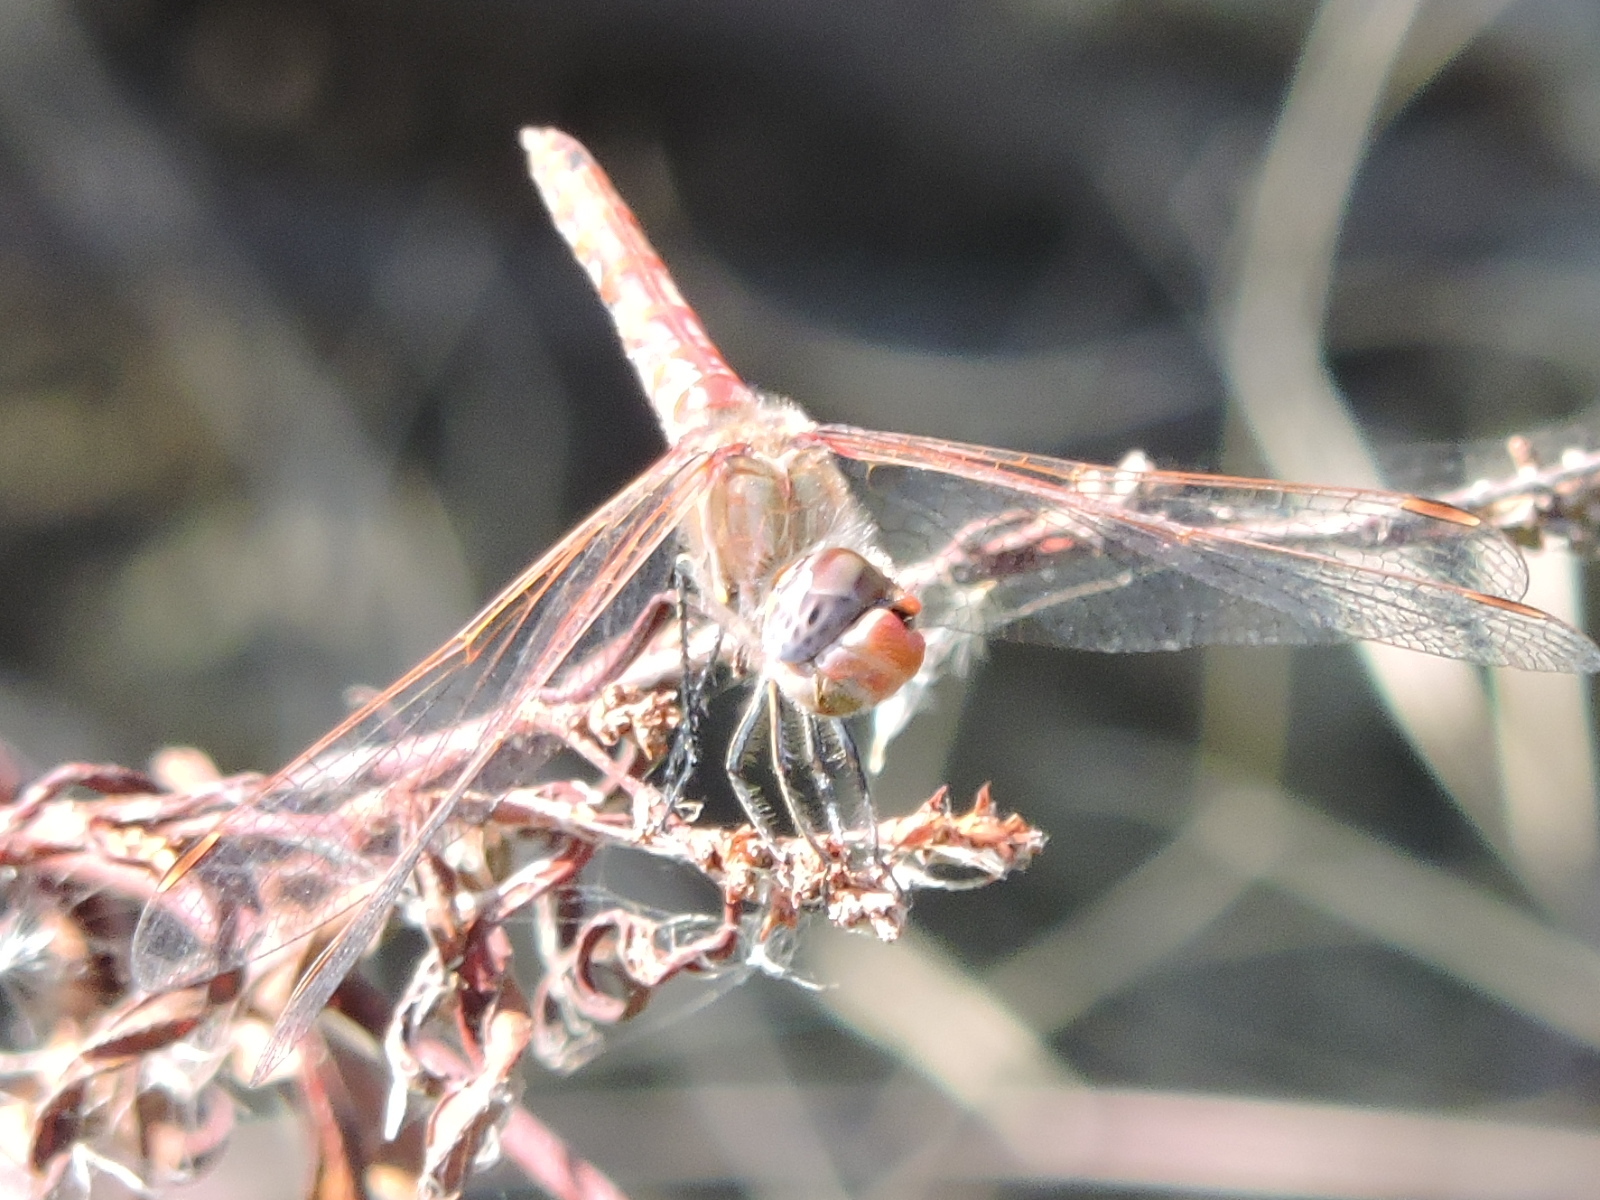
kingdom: Animalia
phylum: Arthropoda
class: Insecta
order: Odonata
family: Libellulidae
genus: Sympetrum
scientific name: Sympetrum corruptum
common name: Variegated meadowhawk
